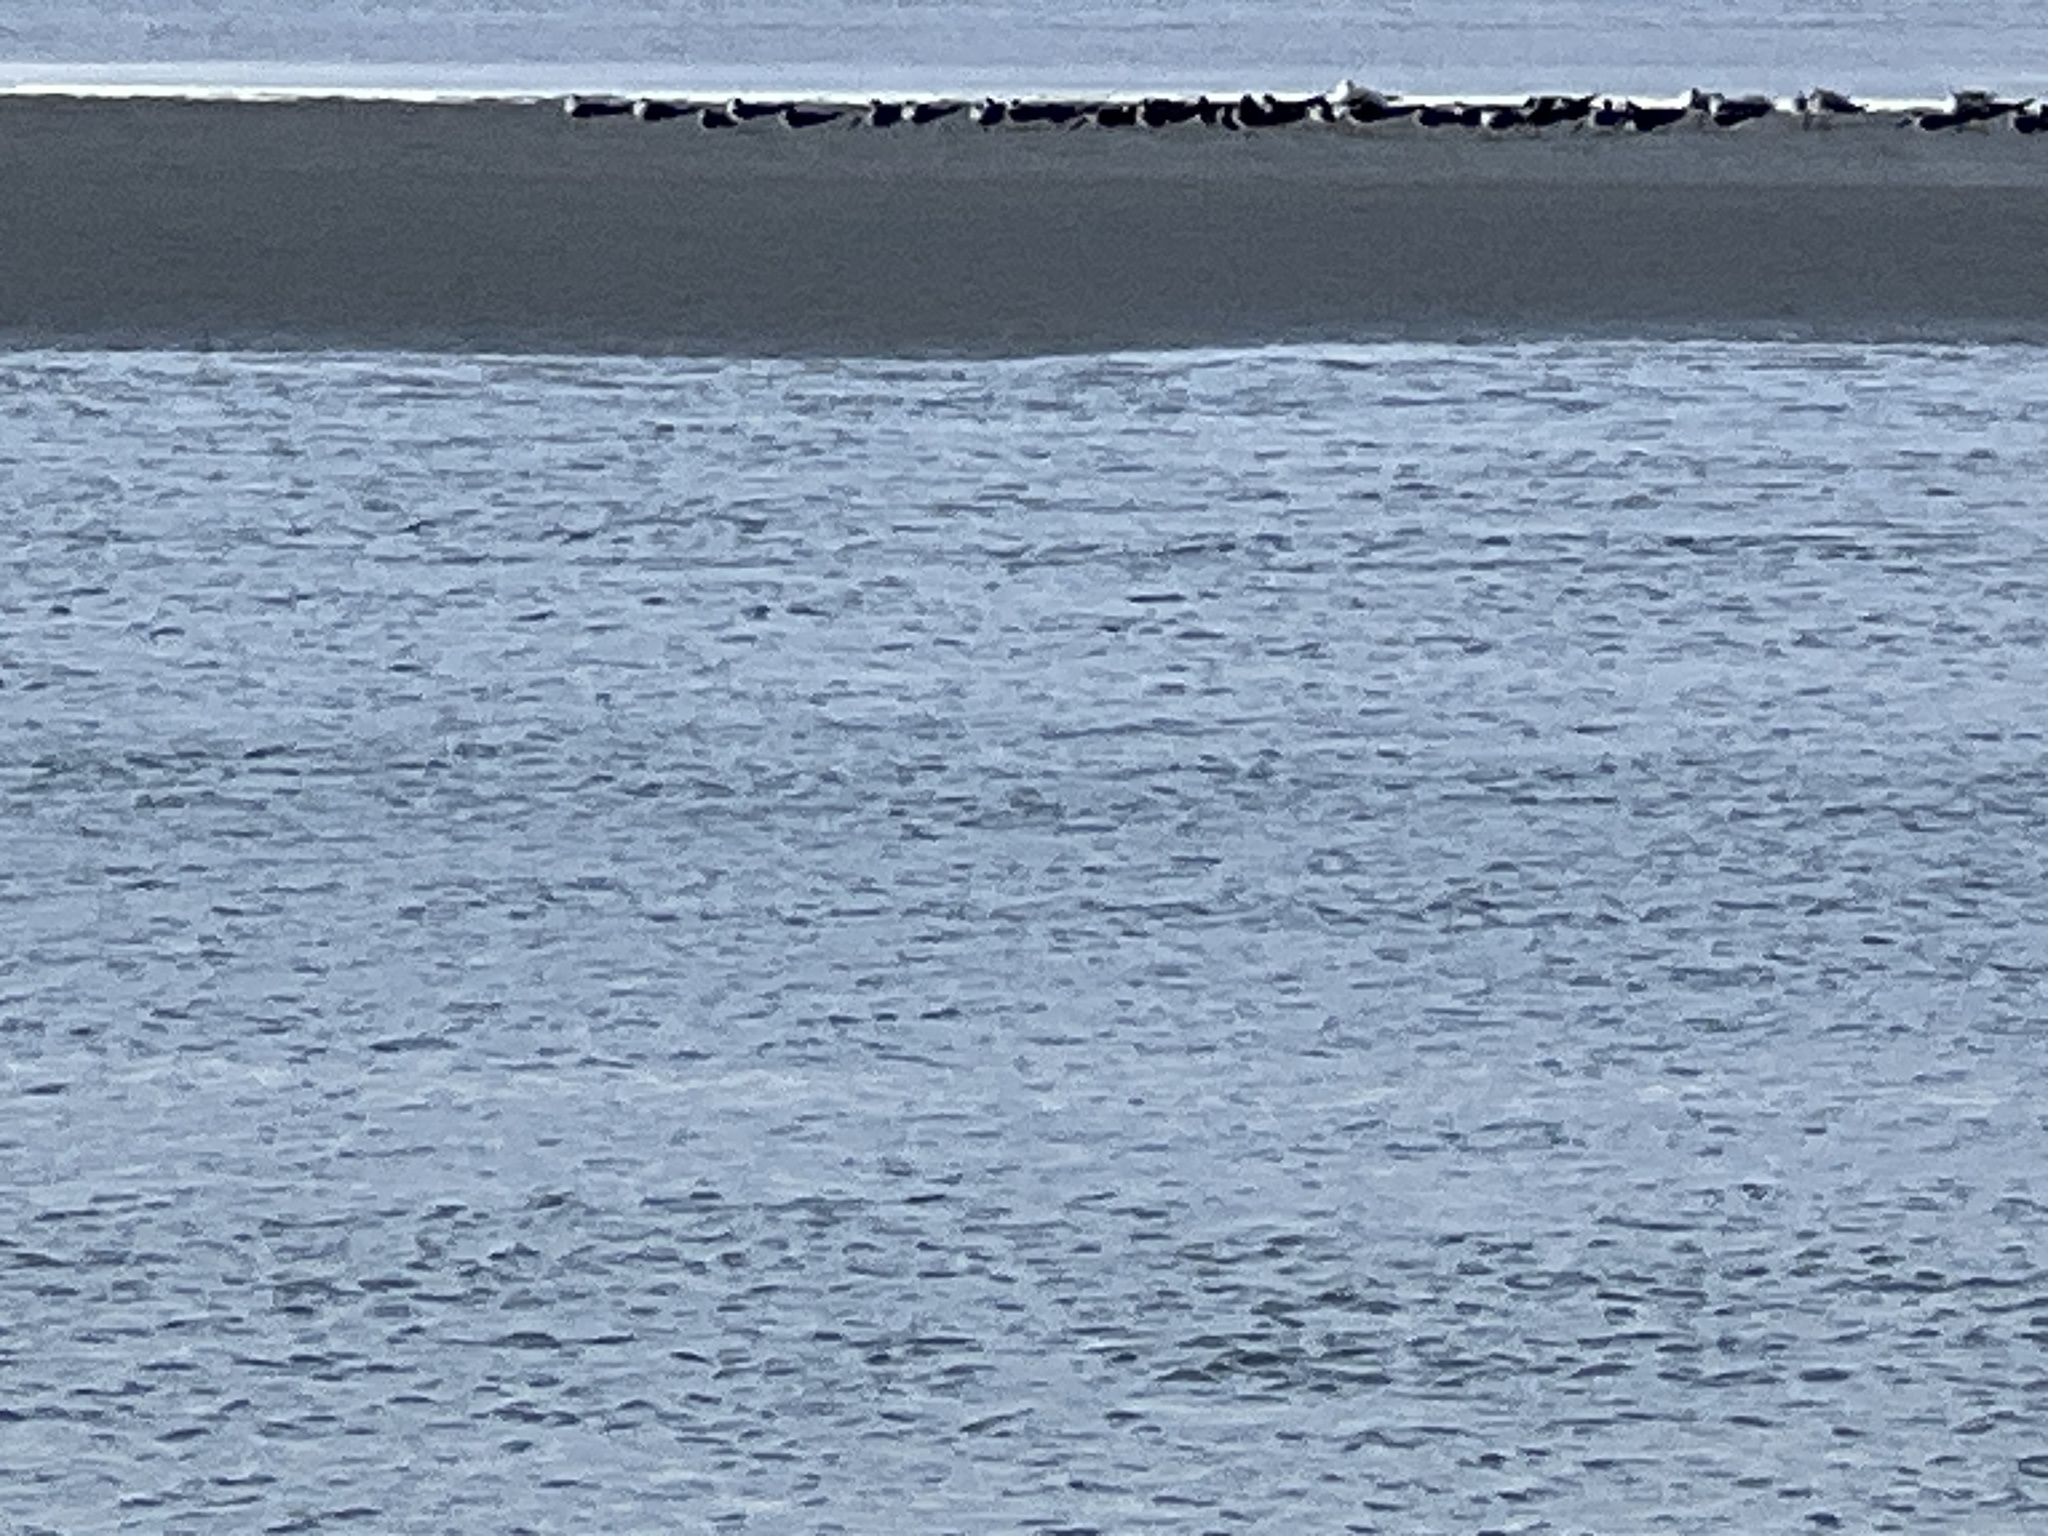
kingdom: Animalia
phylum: Chordata
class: Aves
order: Charadriiformes
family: Laridae
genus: Rynchops
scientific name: Rynchops niger
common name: Black skimmer
